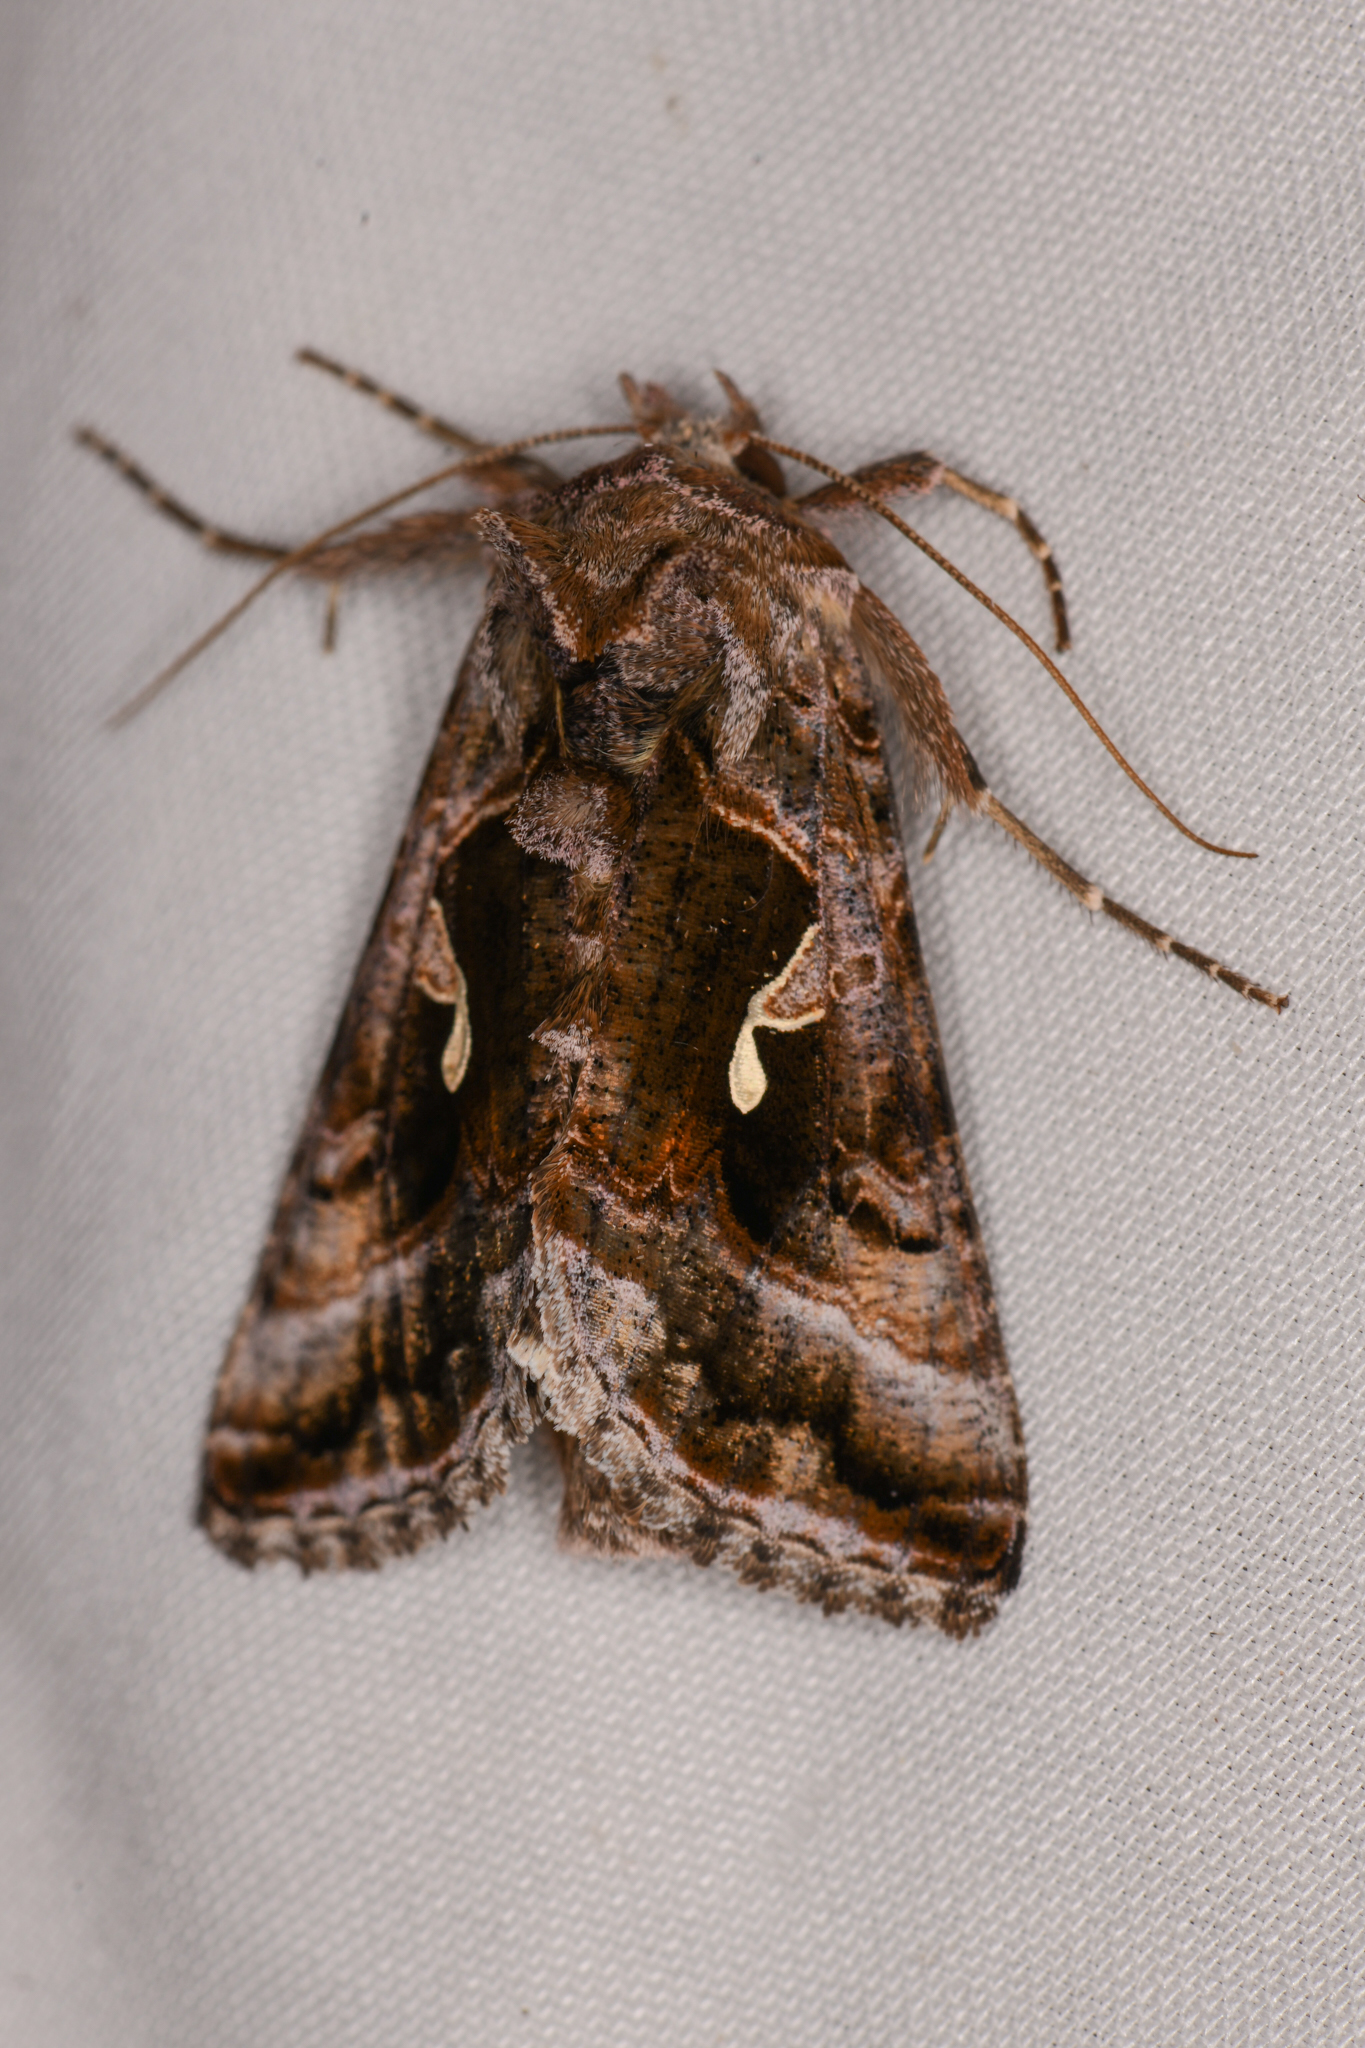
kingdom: Animalia
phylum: Arthropoda
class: Insecta
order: Lepidoptera
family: Noctuidae
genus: Autographa
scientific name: Autographa pseudogamma
